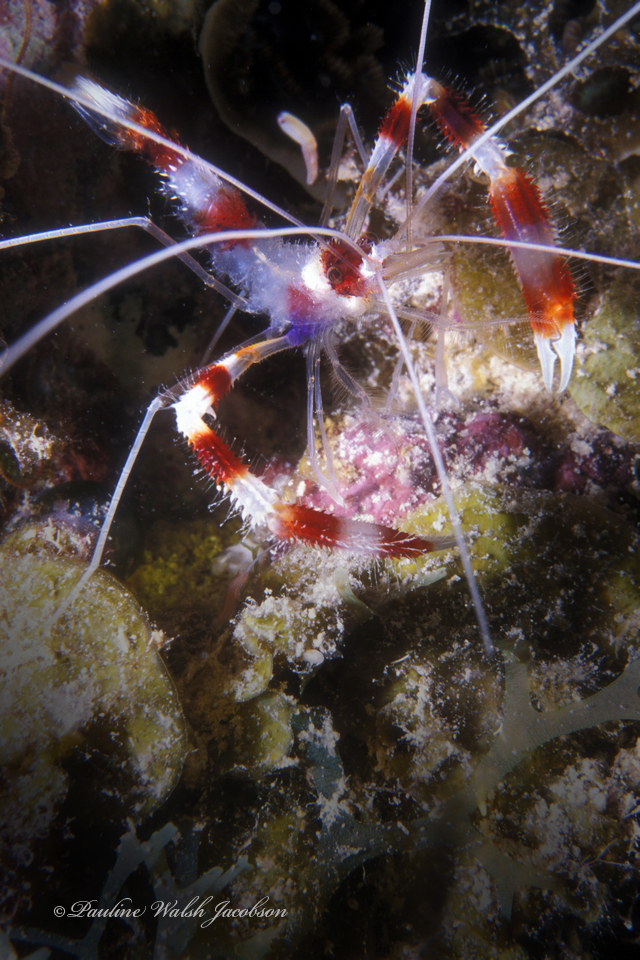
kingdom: Animalia
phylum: Arthropoda
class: Malacostraca
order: Decapoda
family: Stenopodidae
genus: Stenopus
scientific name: Stenopus hispidus
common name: Banded coral shrimp
